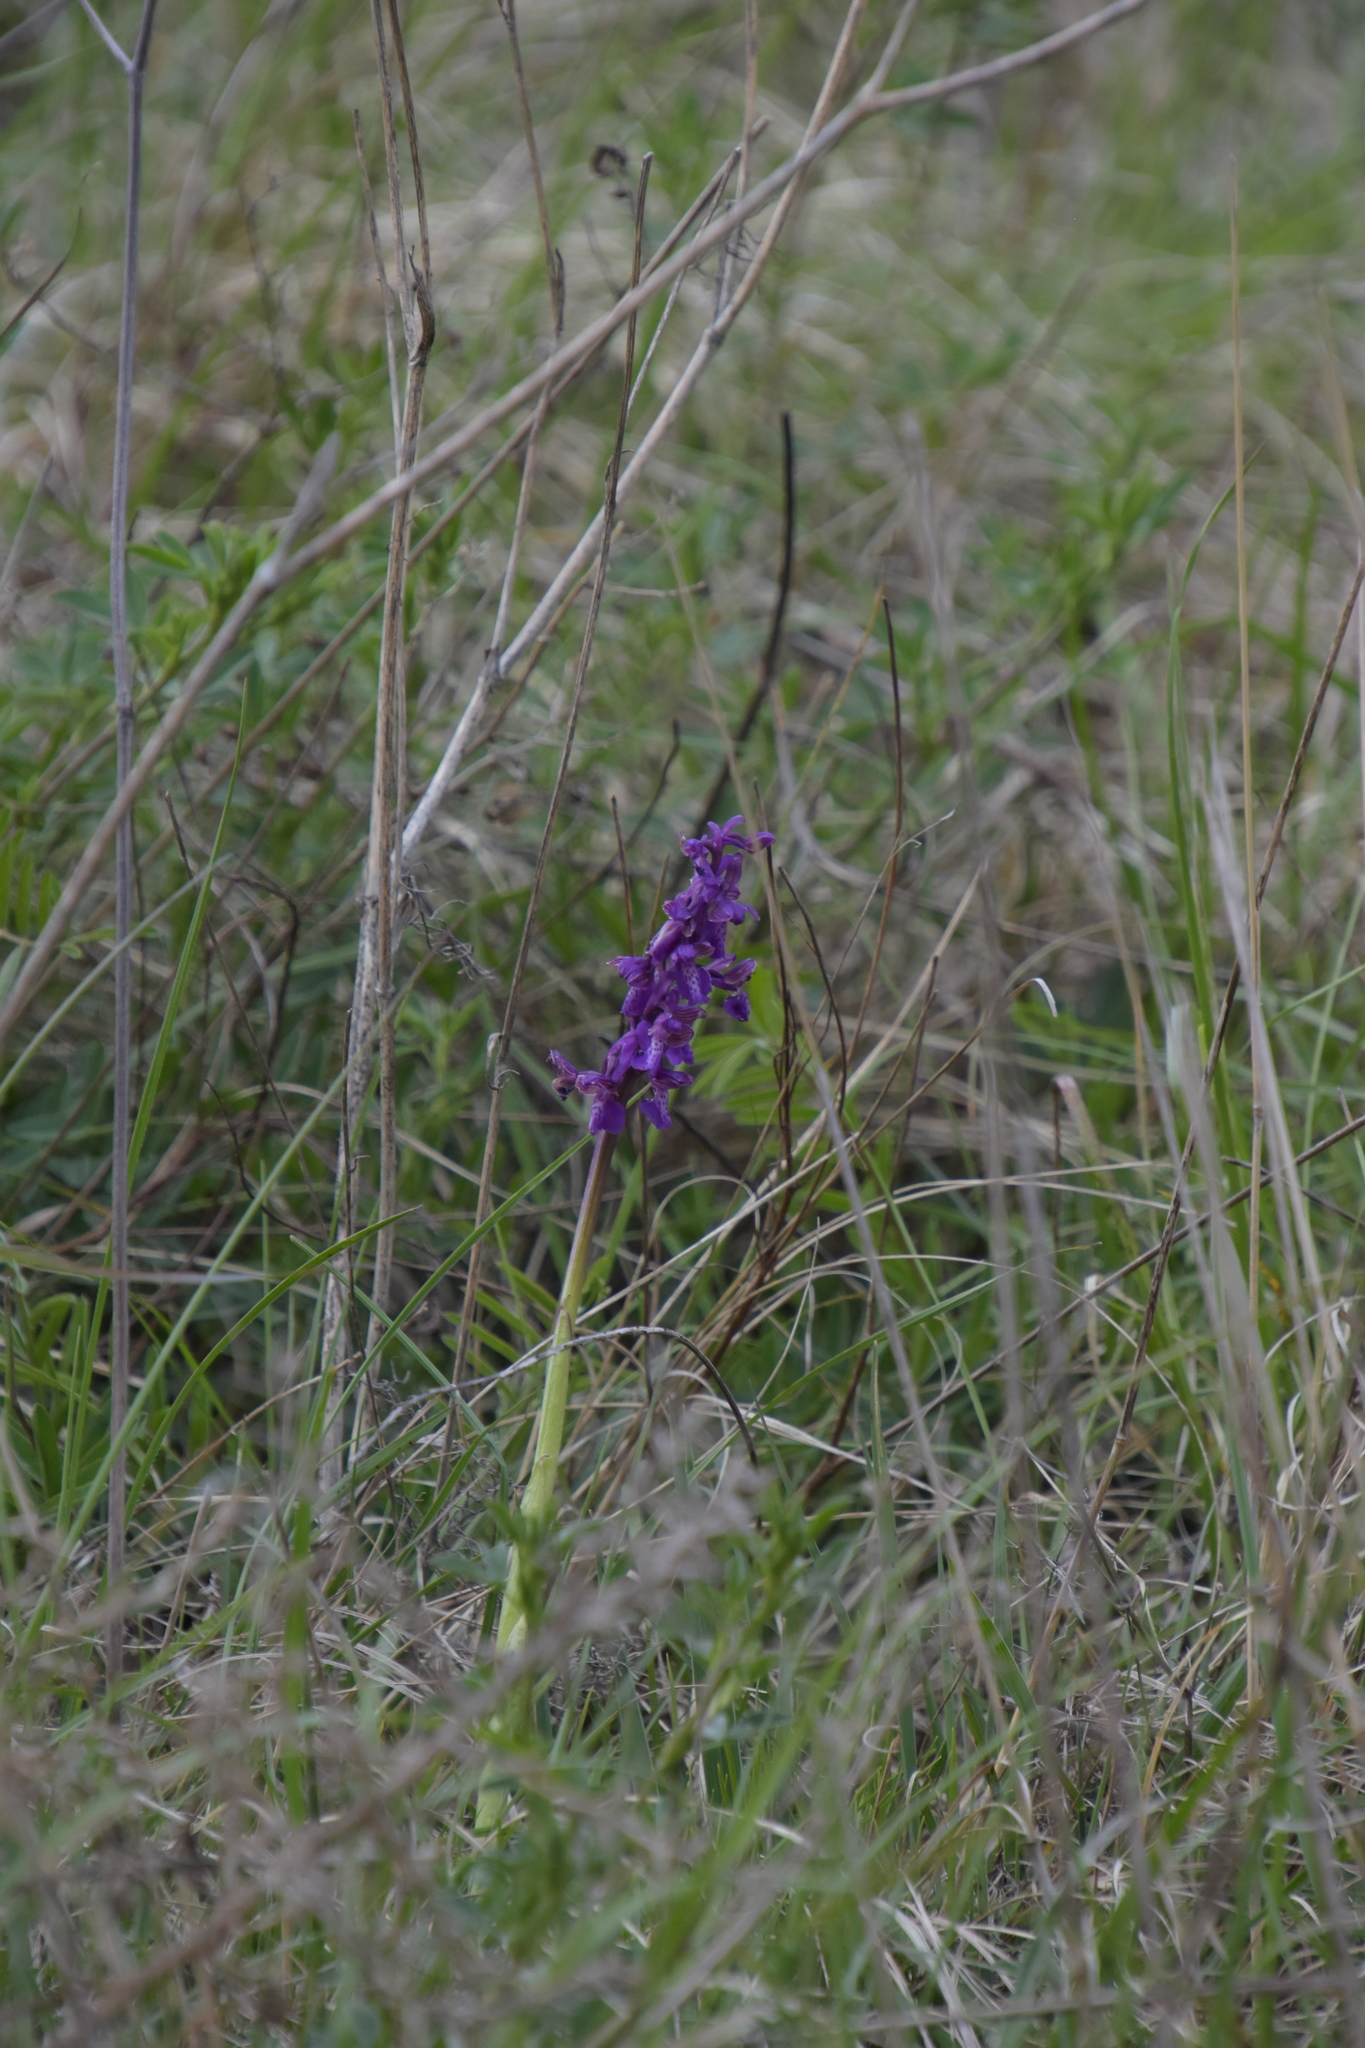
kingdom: Plantae
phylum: Tracheophyta
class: Liliopsida
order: Asparagales
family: Orchidaceae
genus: Anacamptis
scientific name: Anacamptis morio
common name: Green-winged orchid
